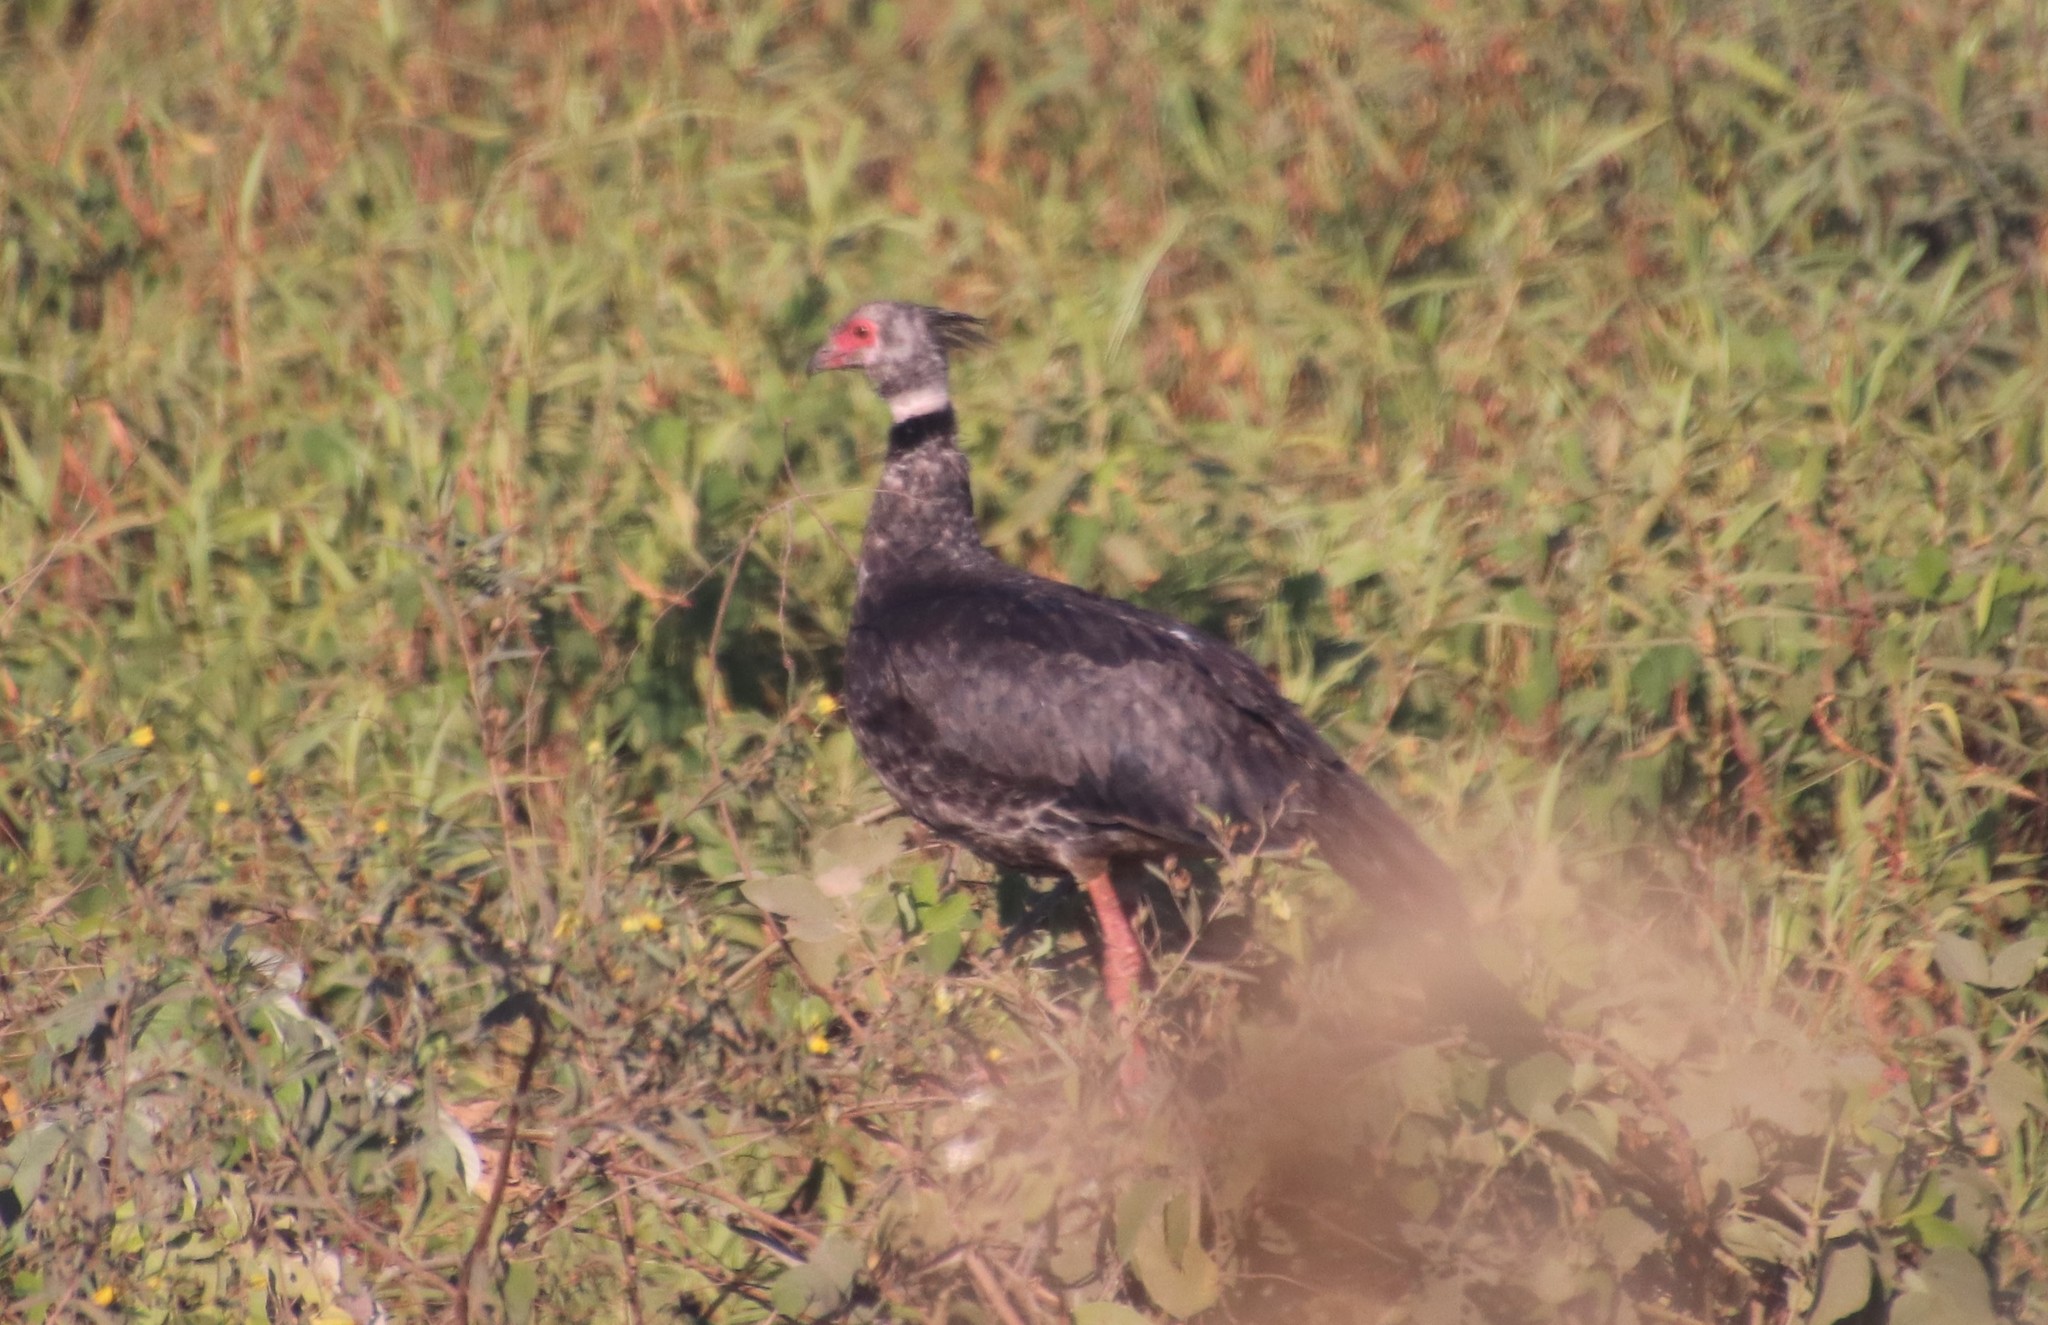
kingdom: Animalia
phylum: Chordata
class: Aves
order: Anseriformes
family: Anhimidae
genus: Chauna
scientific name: Chauna torquata
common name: Southern screamer
